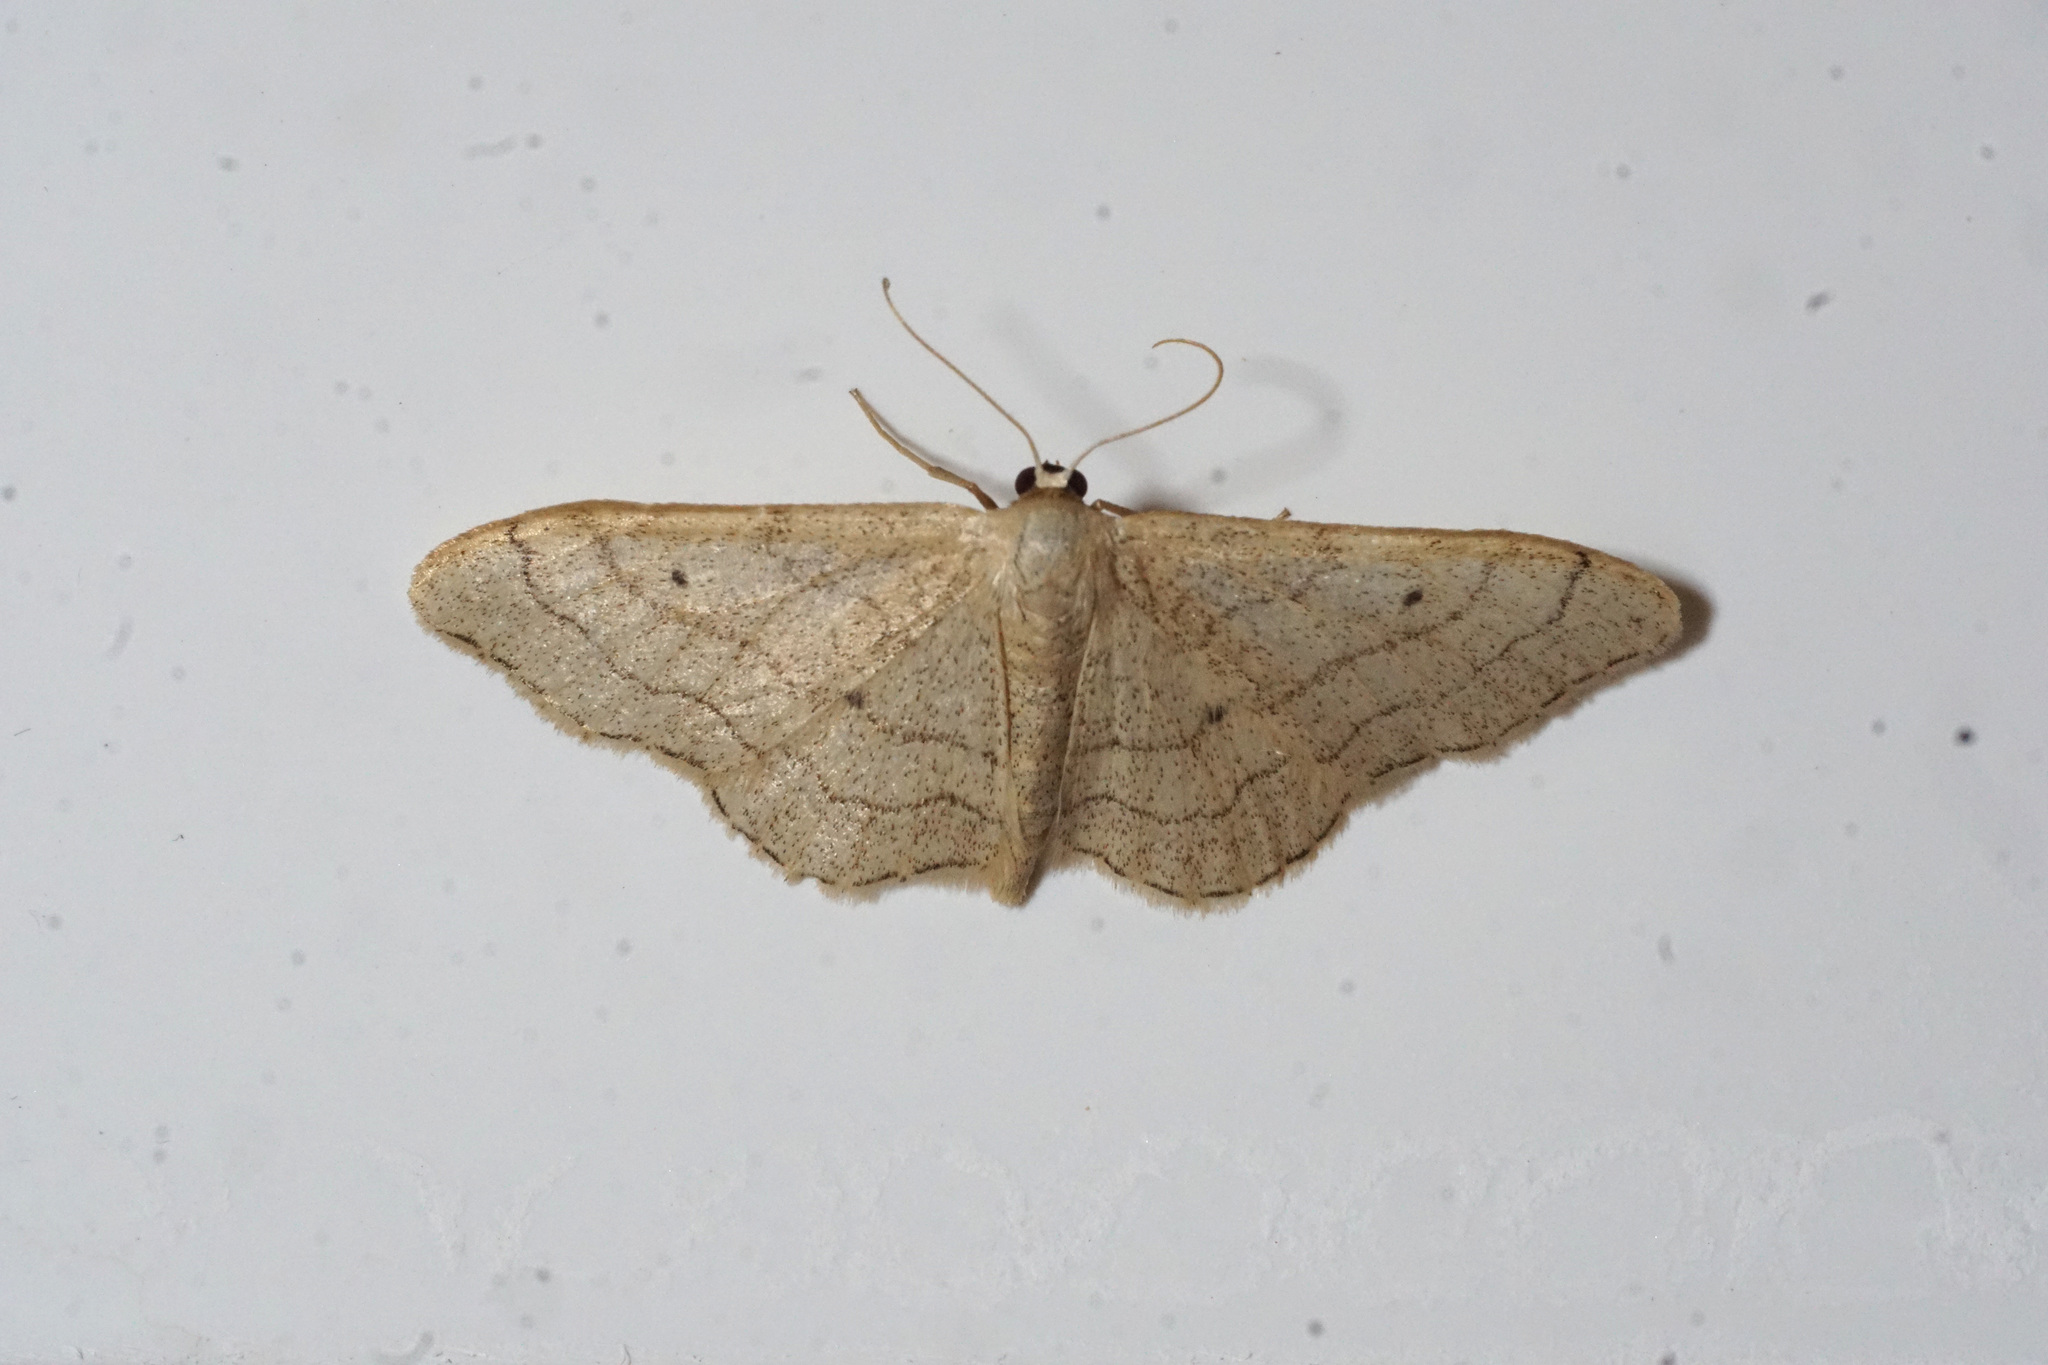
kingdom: Animalia
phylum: Arthropoda
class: Insecta
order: Lepidoptera
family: Geometridae
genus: Idaea
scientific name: Idaea aversata
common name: Riband wave
